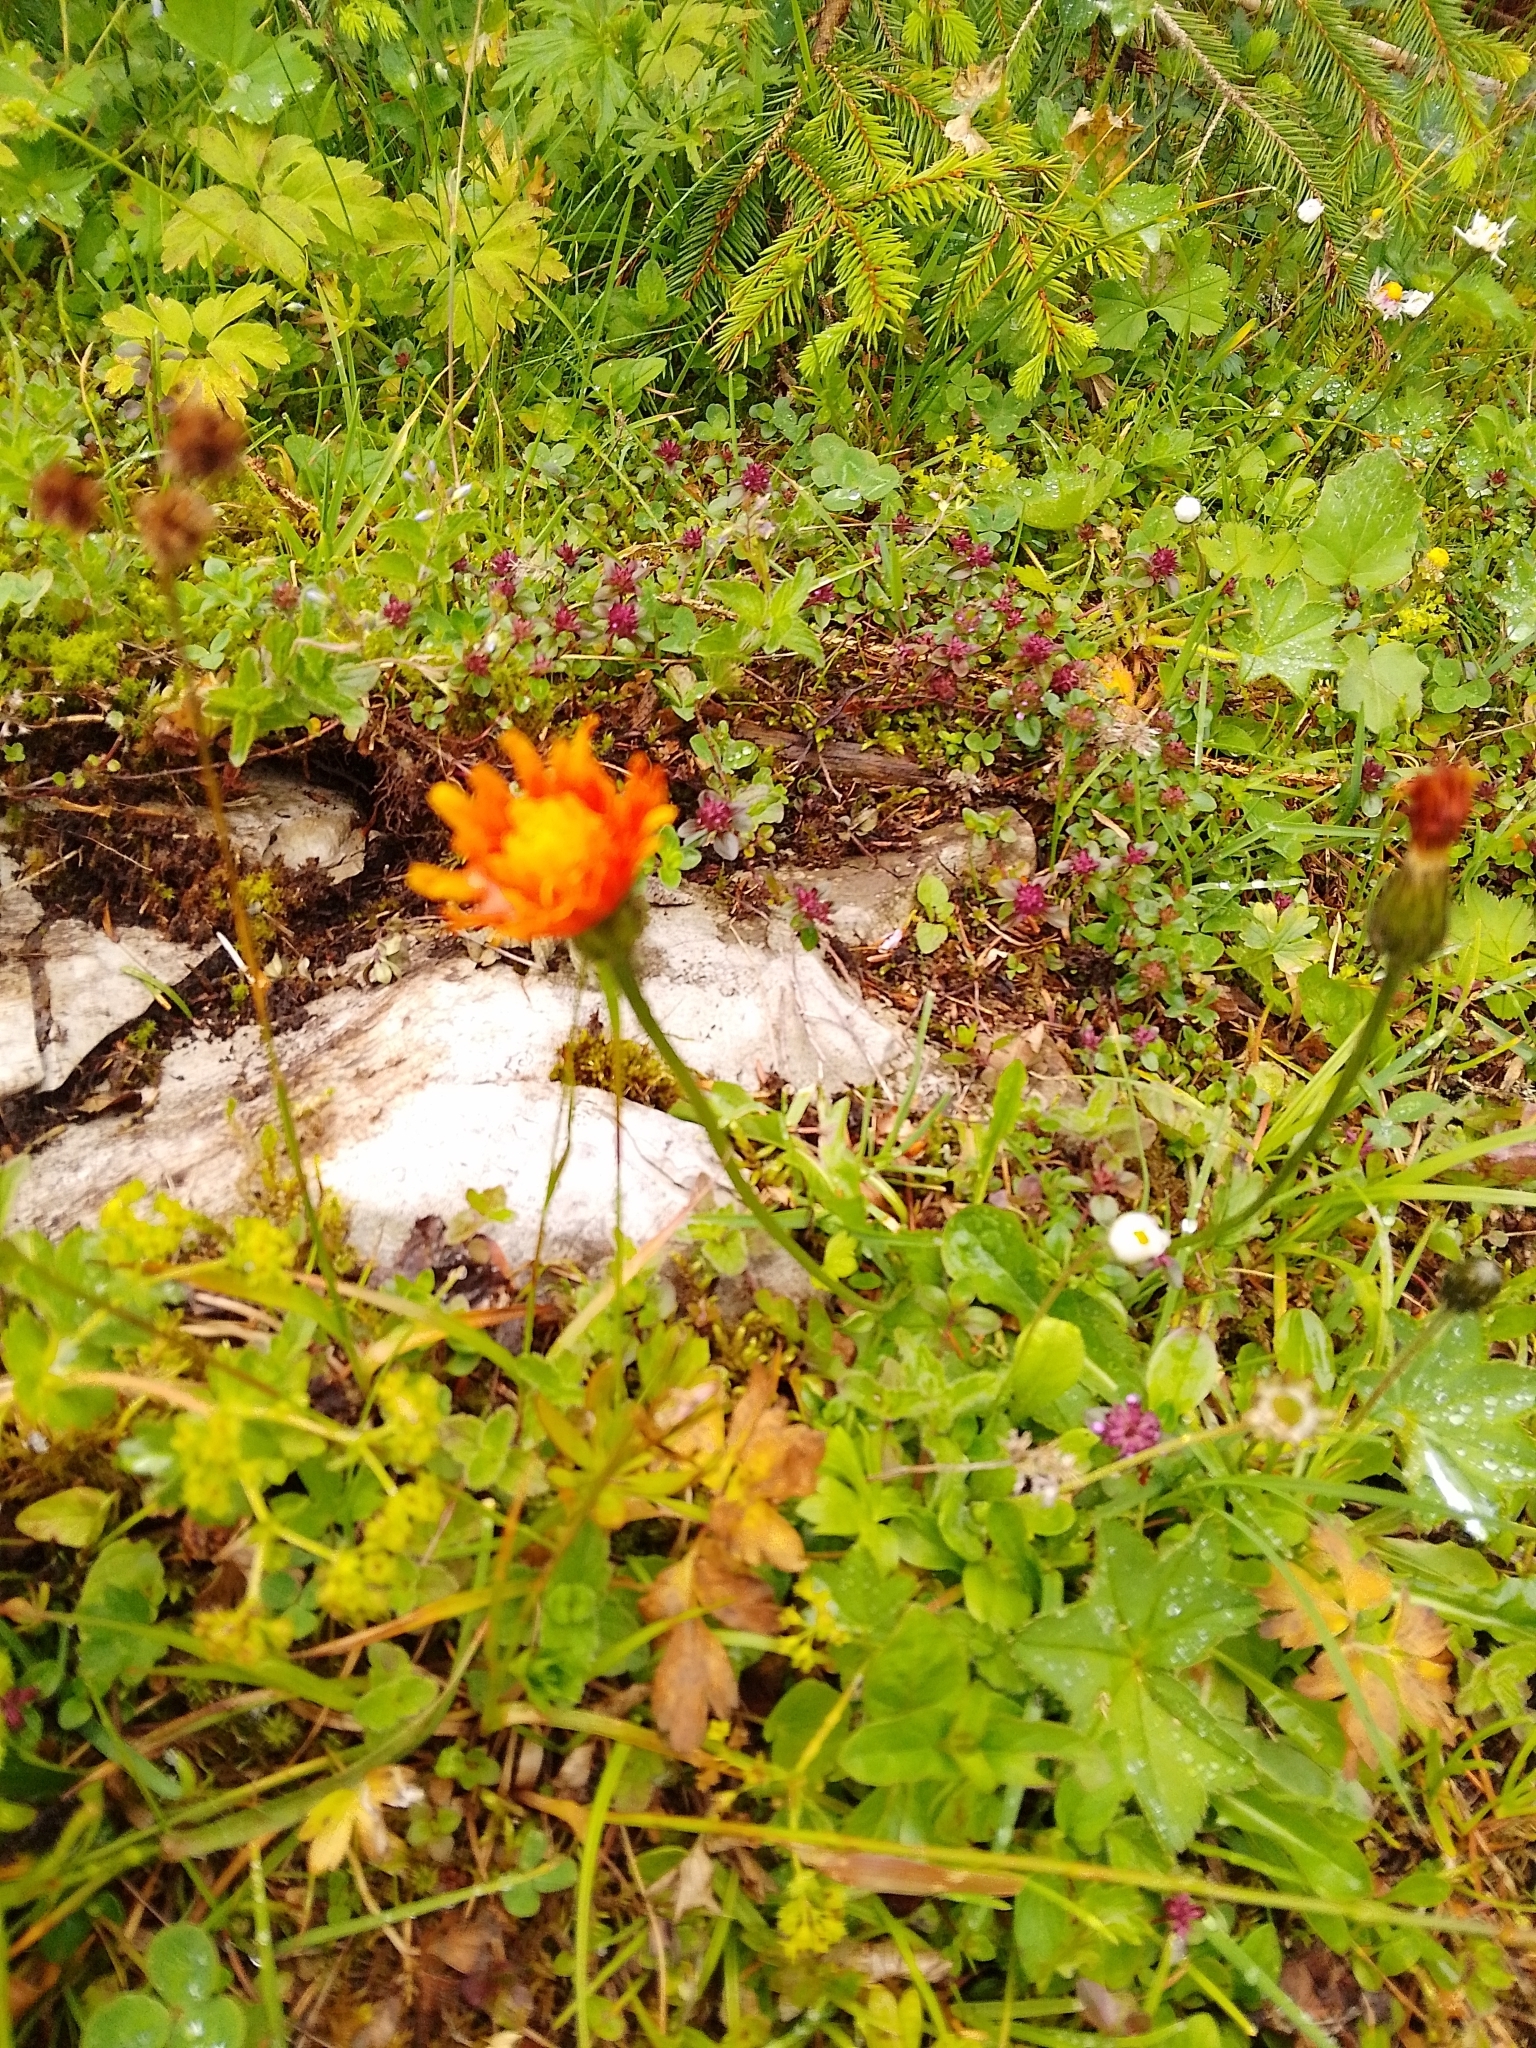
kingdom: Plantae
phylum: Tracheophyta
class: Magnoliopsida
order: Asterales
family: Asteraceae
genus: Crepis
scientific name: Crepis aurea
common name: Golden hawk's-beard
